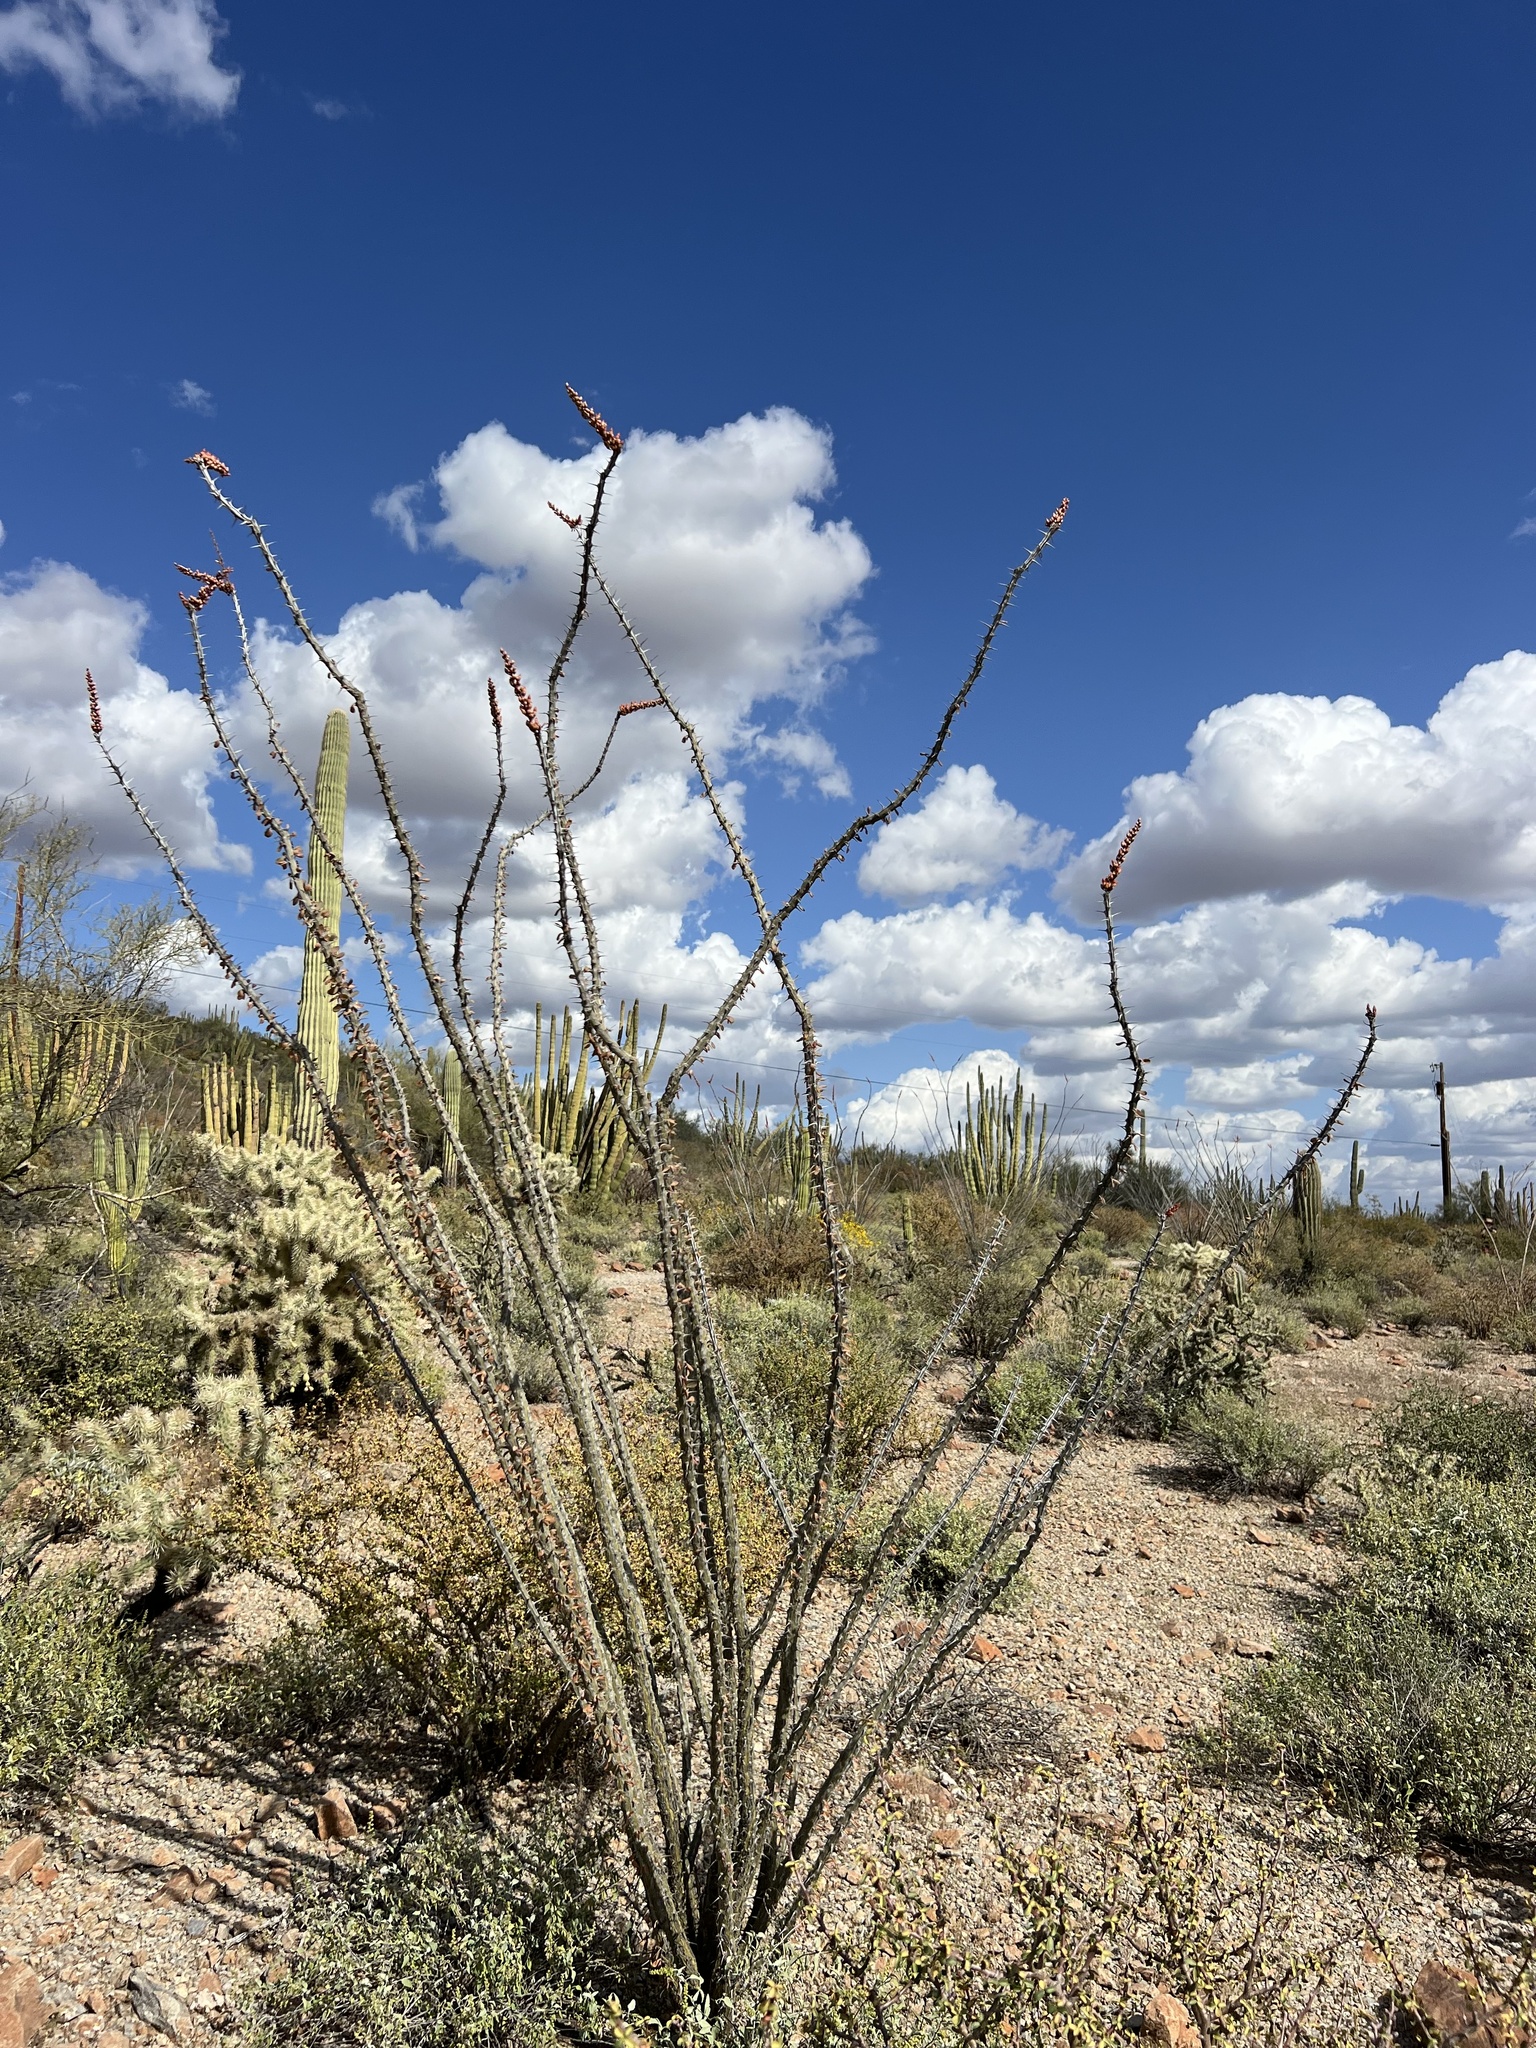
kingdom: Plantae
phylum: Tracheophyta
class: Magnoliopsida
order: Ericales
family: Fouquieriaceae
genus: Fouquieria
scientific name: Fouquieria splendens
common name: Vine-cactus
